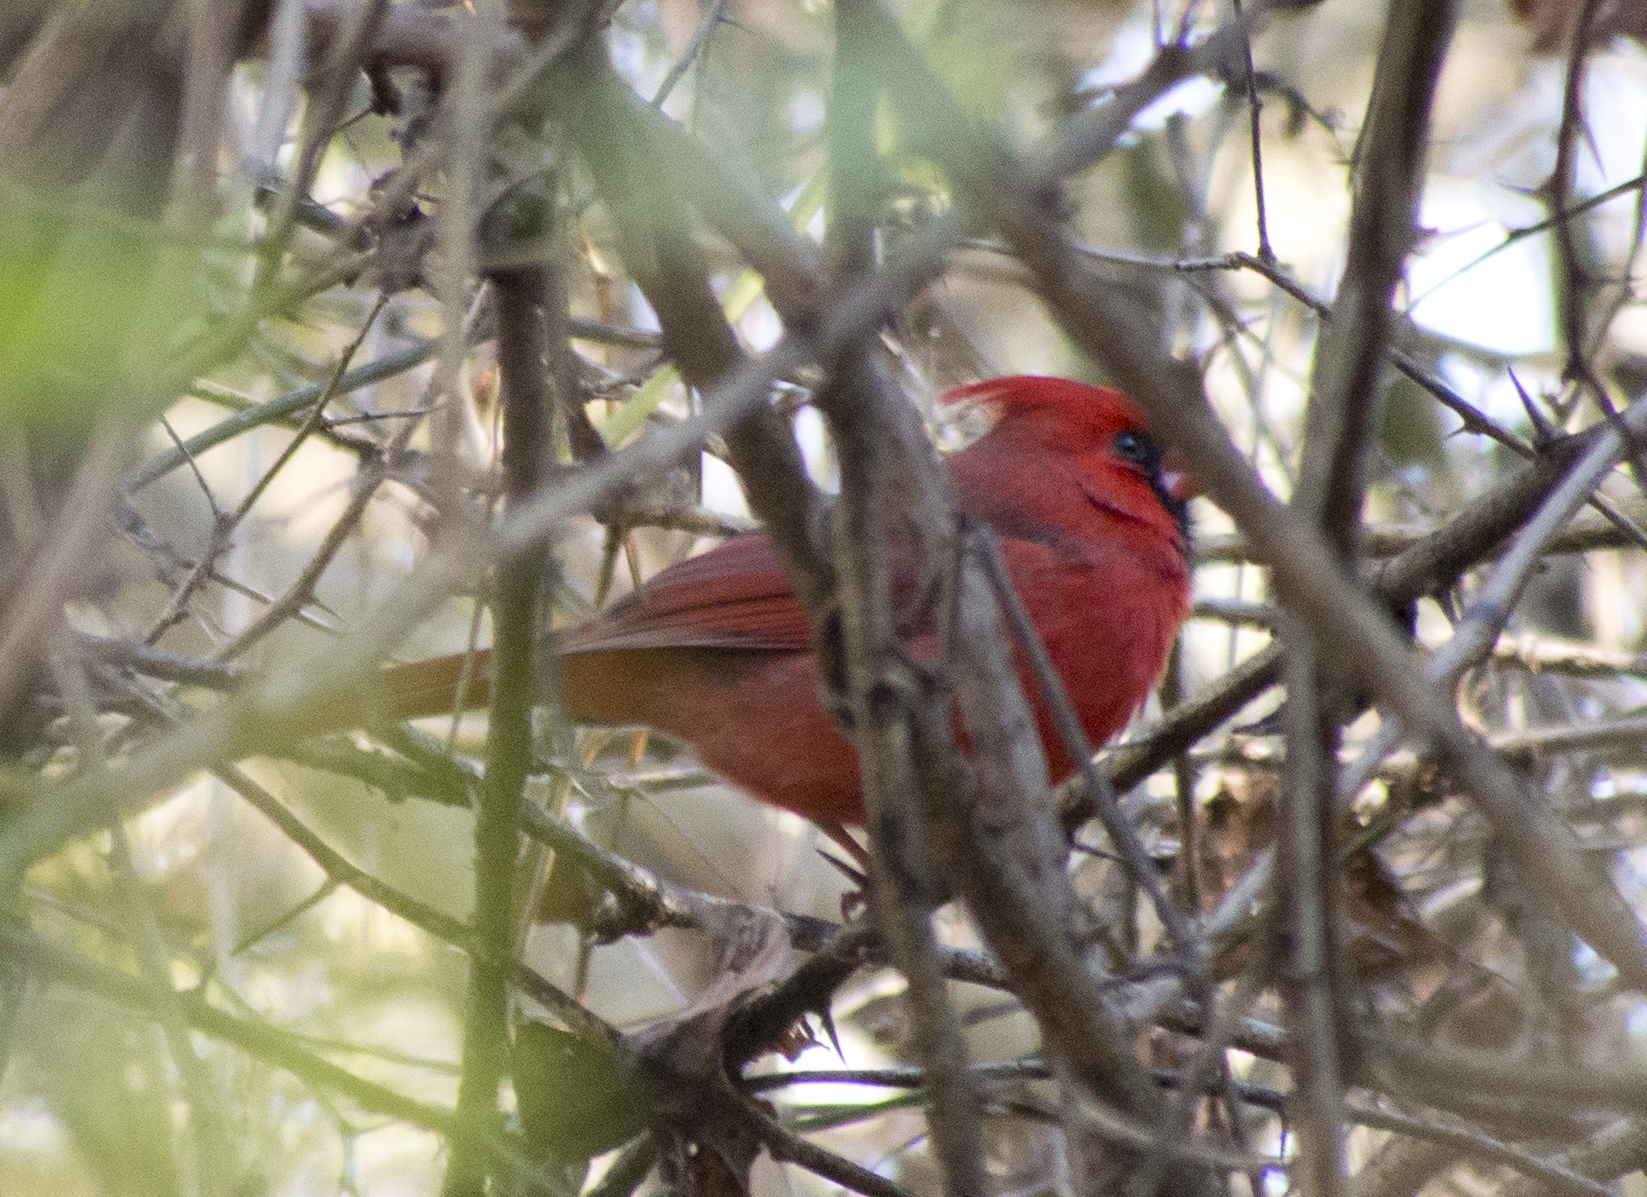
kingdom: Animalia
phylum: Chordata
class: Aves
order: Passeriformes
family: Cardinalidae
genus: Cardinalis
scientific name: Cardinalis cardinalis
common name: Northern cardinal
